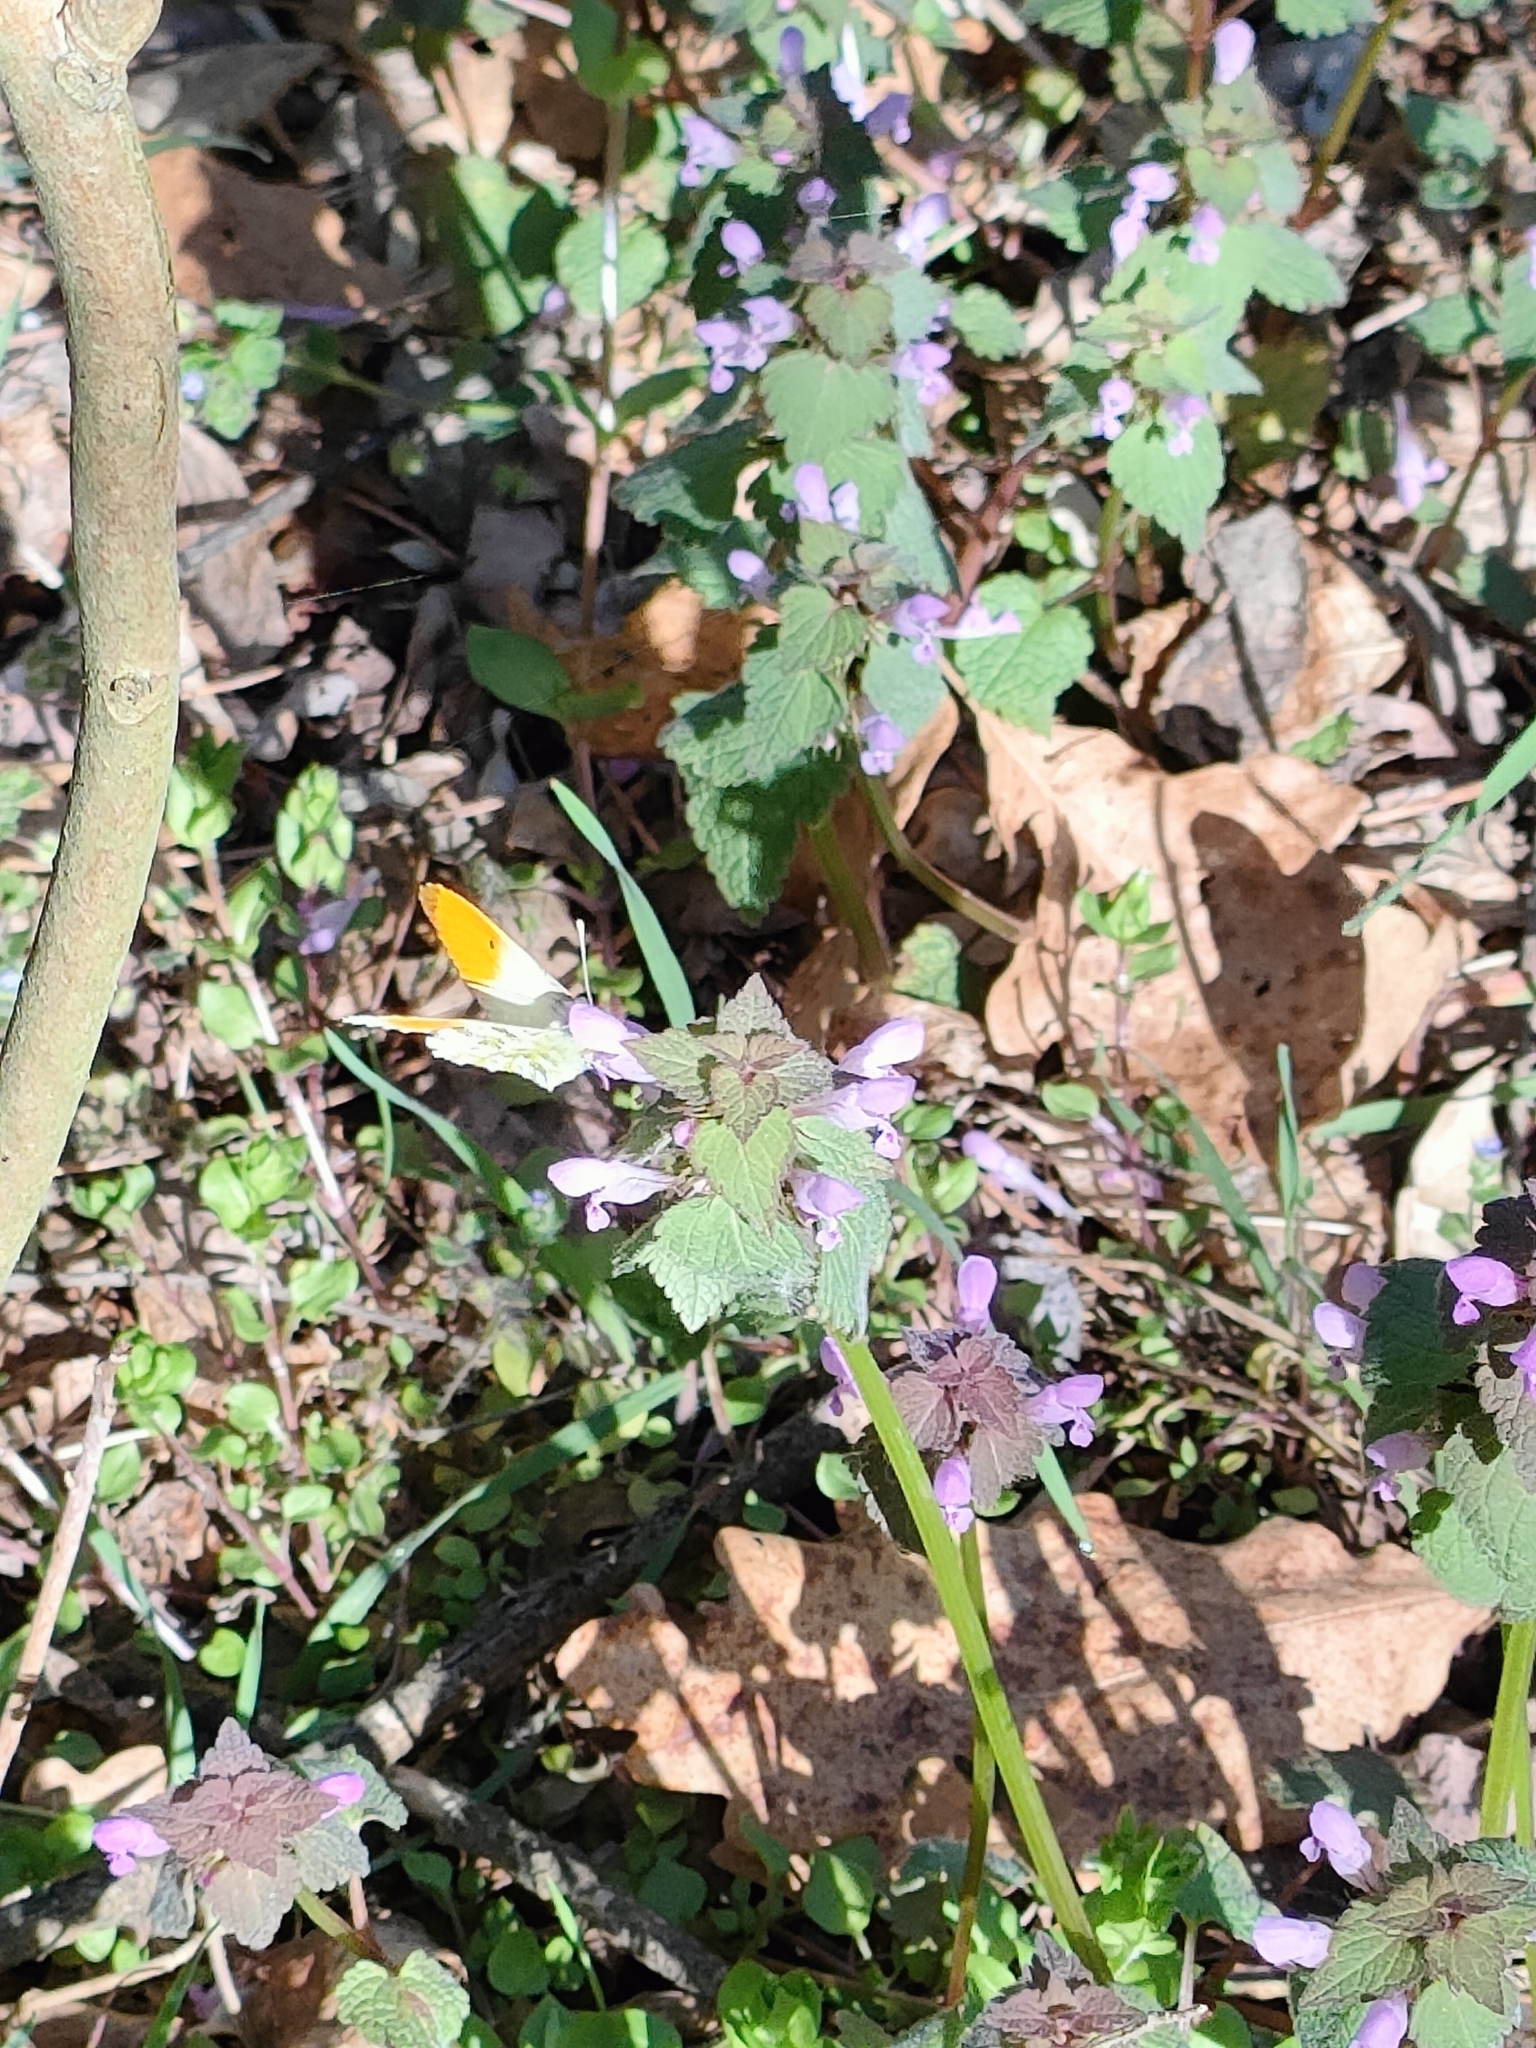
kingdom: Animalia
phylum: Arthropoda
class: Insecta
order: Lepidoptera
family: Pieridae
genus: Anthocharis
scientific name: Anthocharis cardamines
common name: Orange-tip
